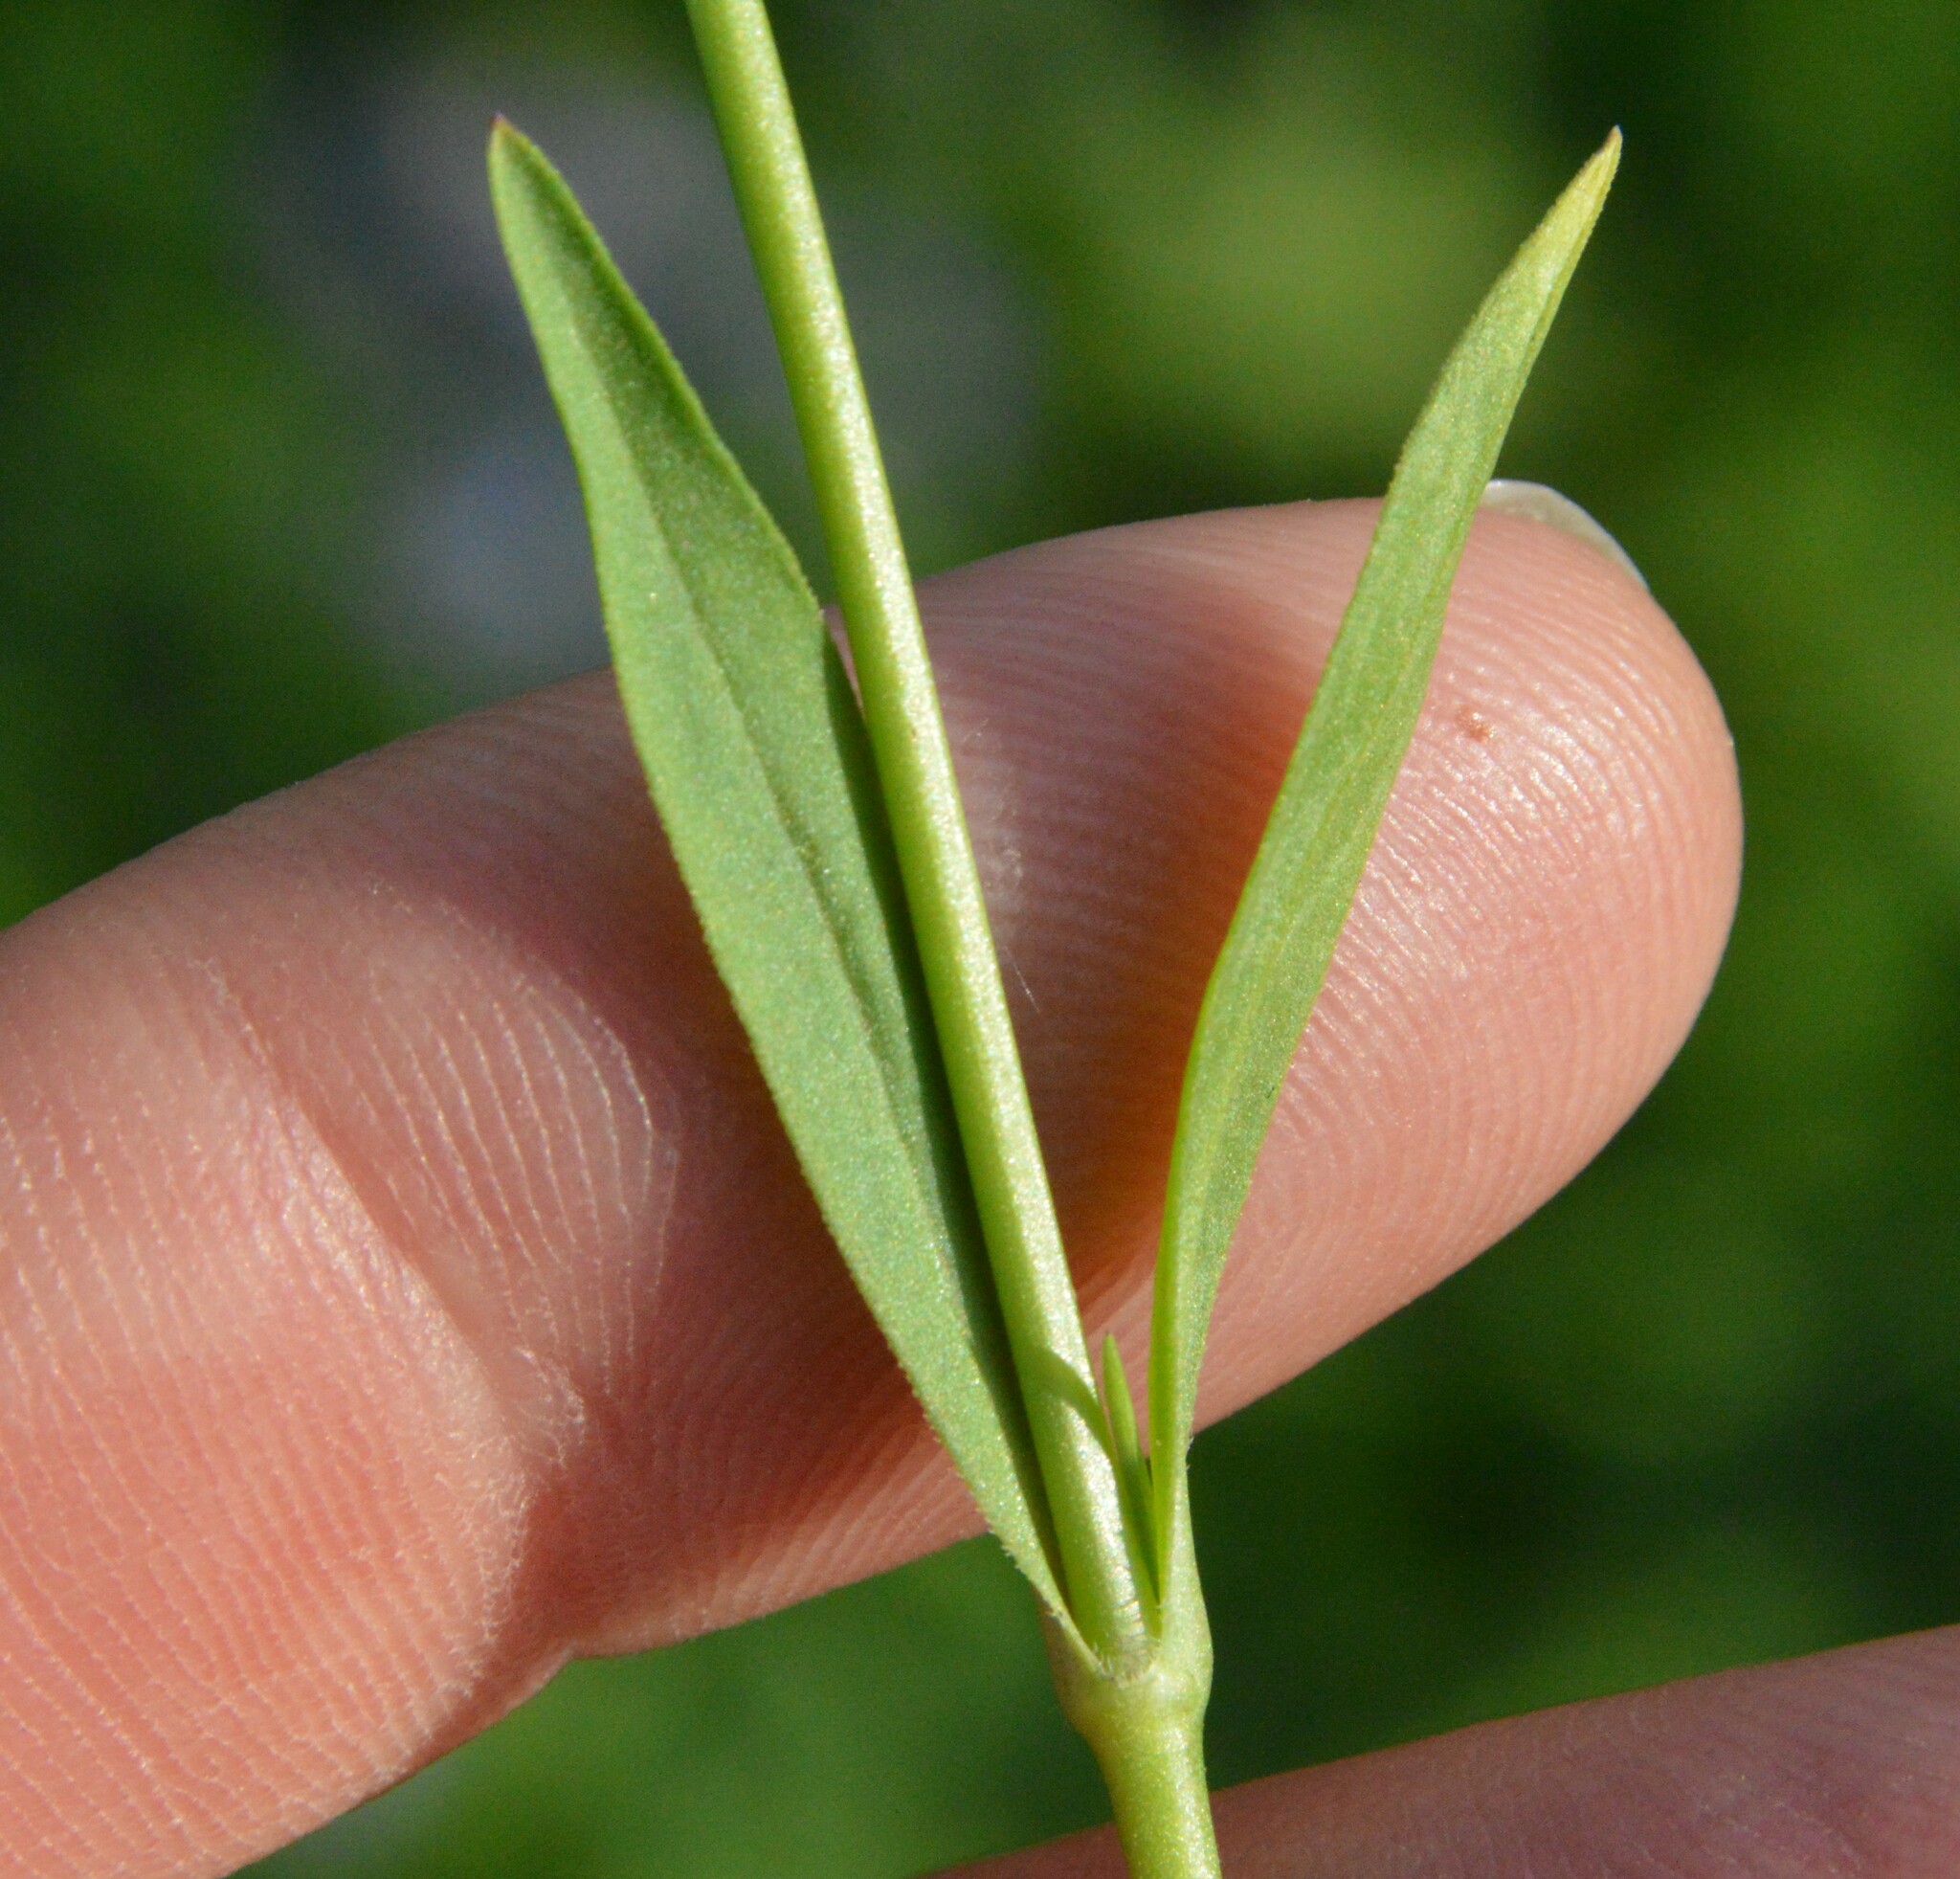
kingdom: Plantae
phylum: Tracheophyta
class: Magnoliopsida
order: Caryophyllales
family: Caryophyllaceae
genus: Silene
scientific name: Silene antirrhina
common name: Sleepy catchfly
